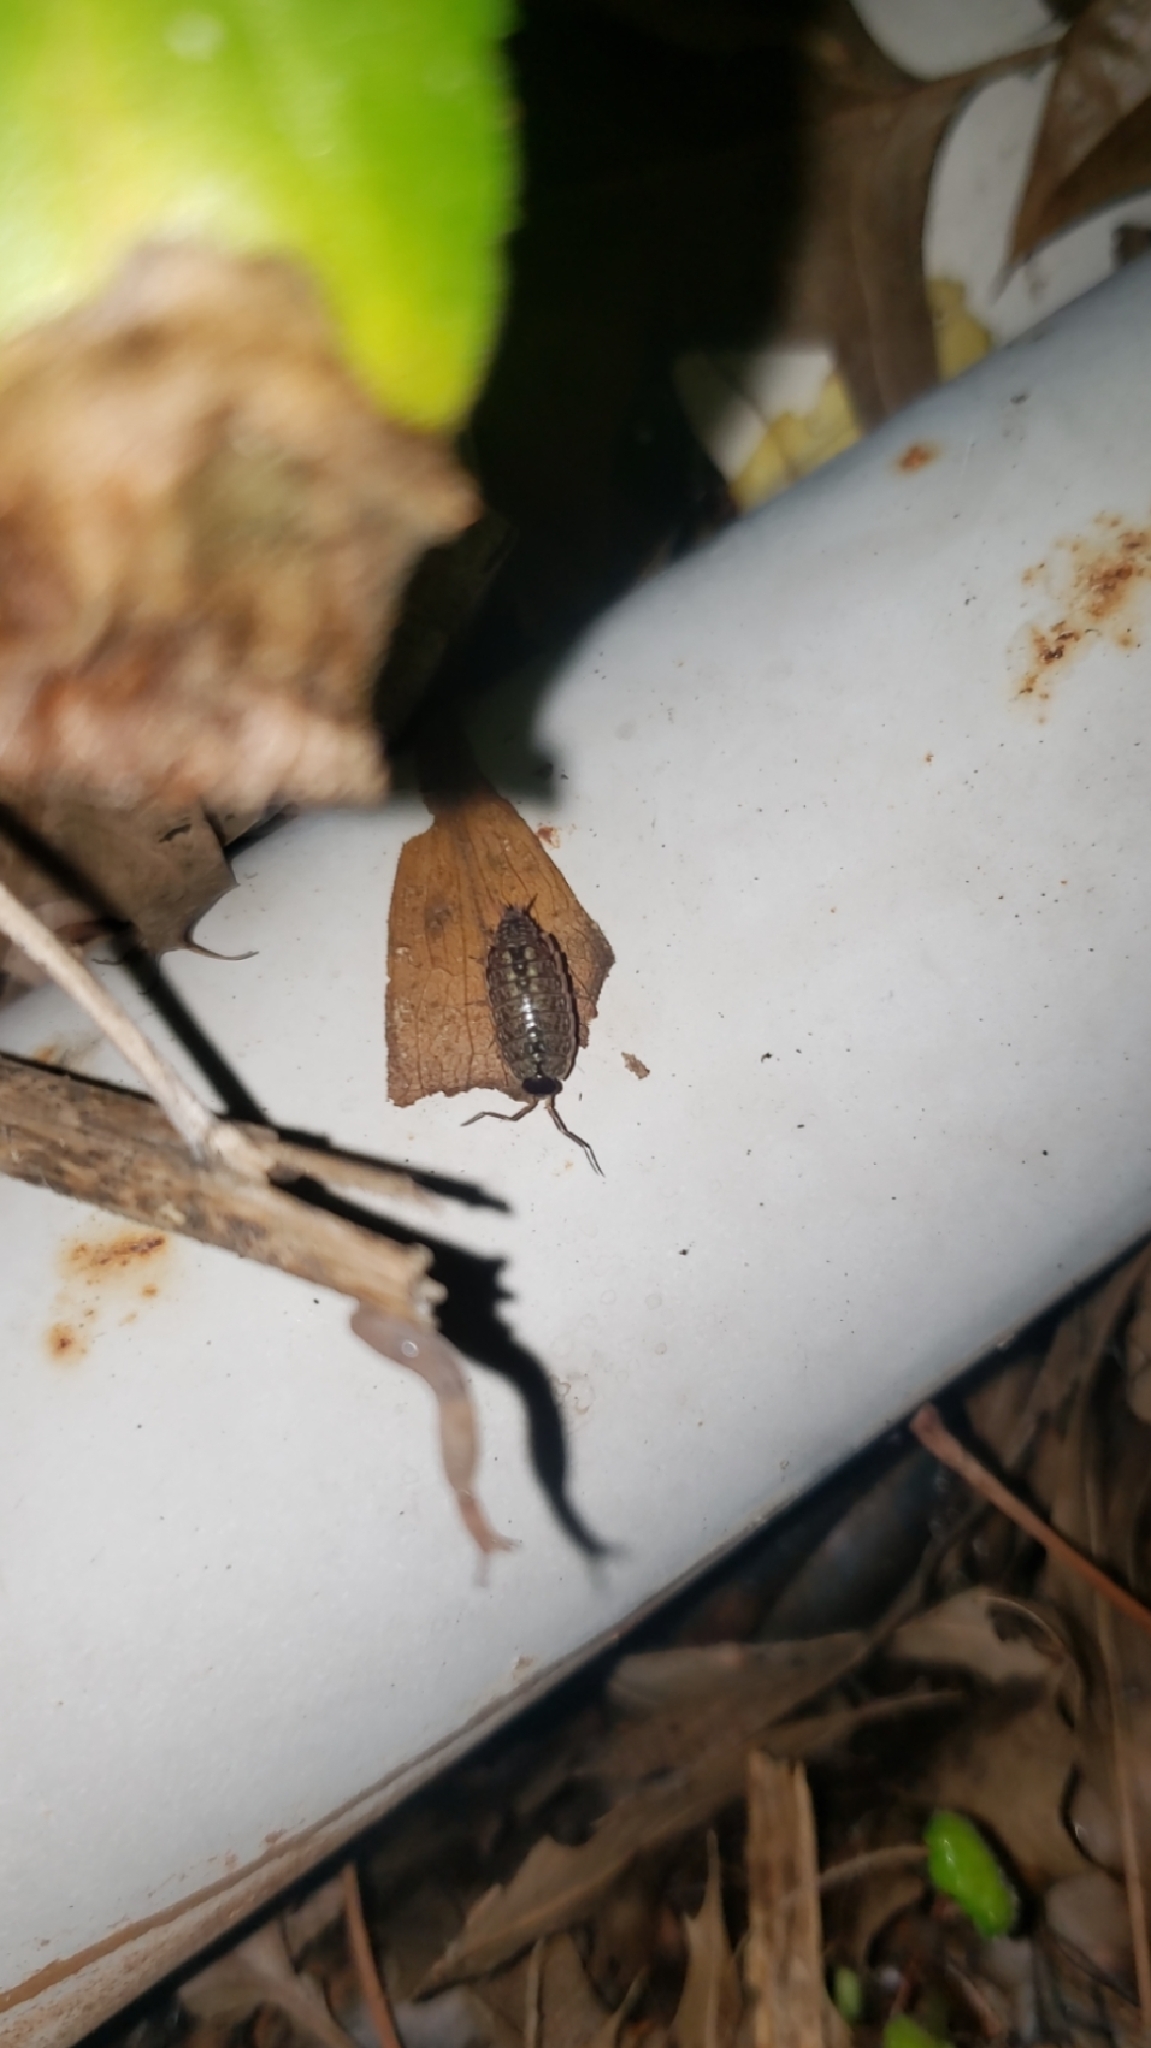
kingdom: Animalia
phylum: Arthropoda
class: Malacostraca
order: Isopoda
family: Philosciidae
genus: Philoscia
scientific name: Philoscia muscorum
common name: Common striped woodlouse
